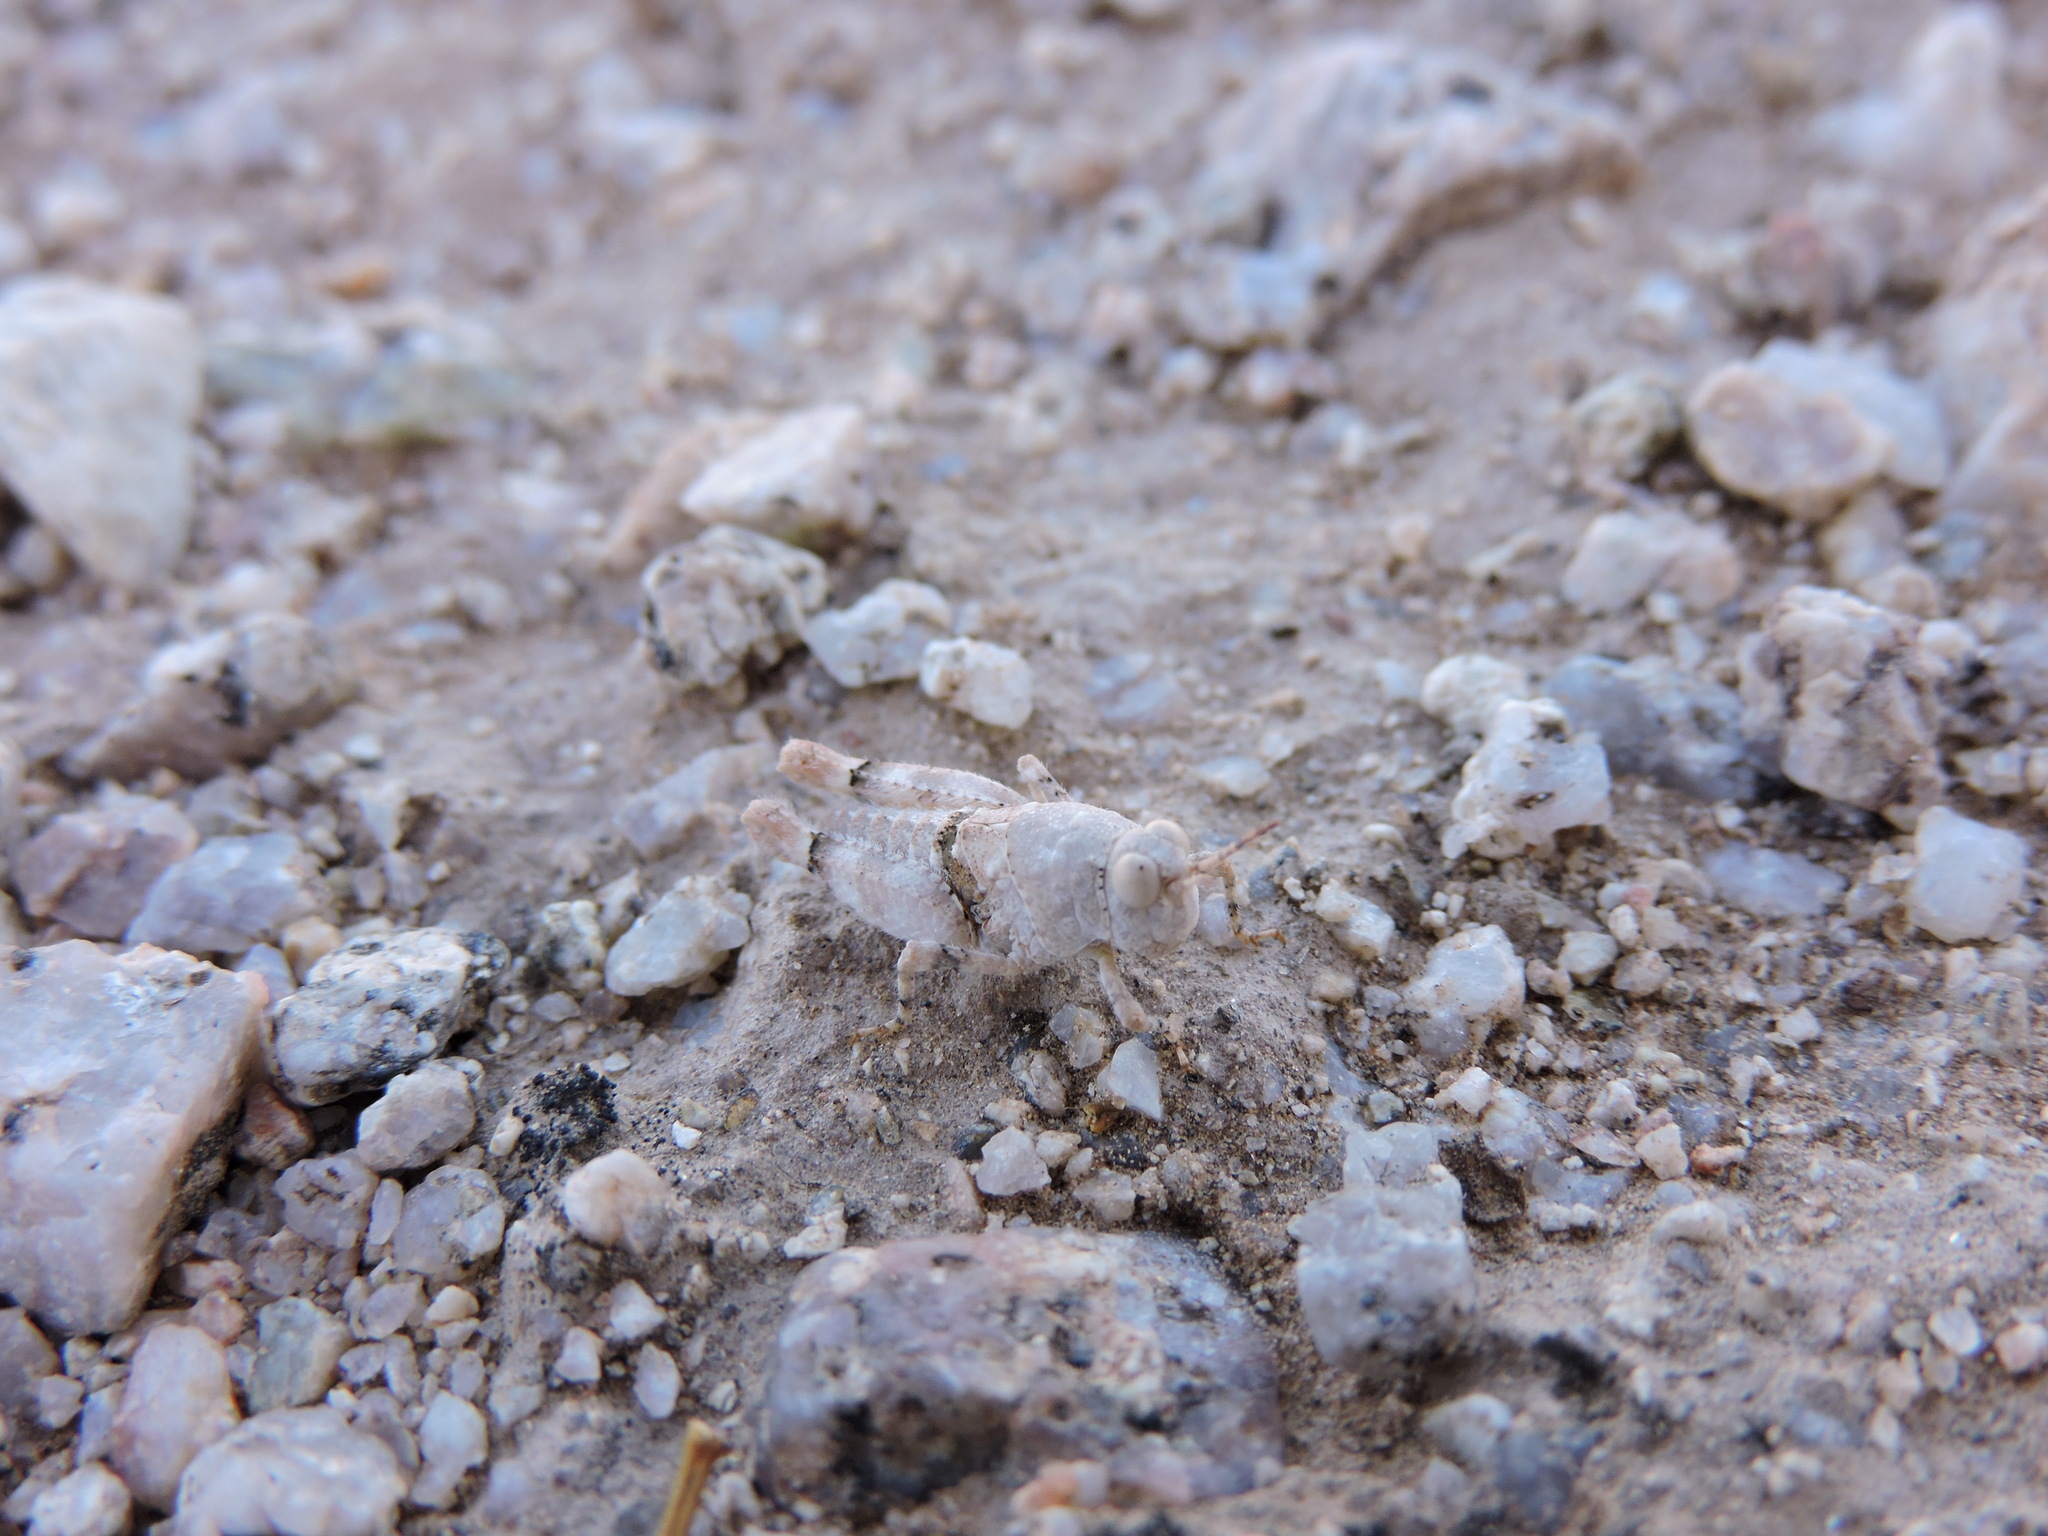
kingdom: Animalia
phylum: Arthropoda
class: Insecta
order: Orthoptera
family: Acrididae
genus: Cibolacris
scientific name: Cibolacris parviceps
